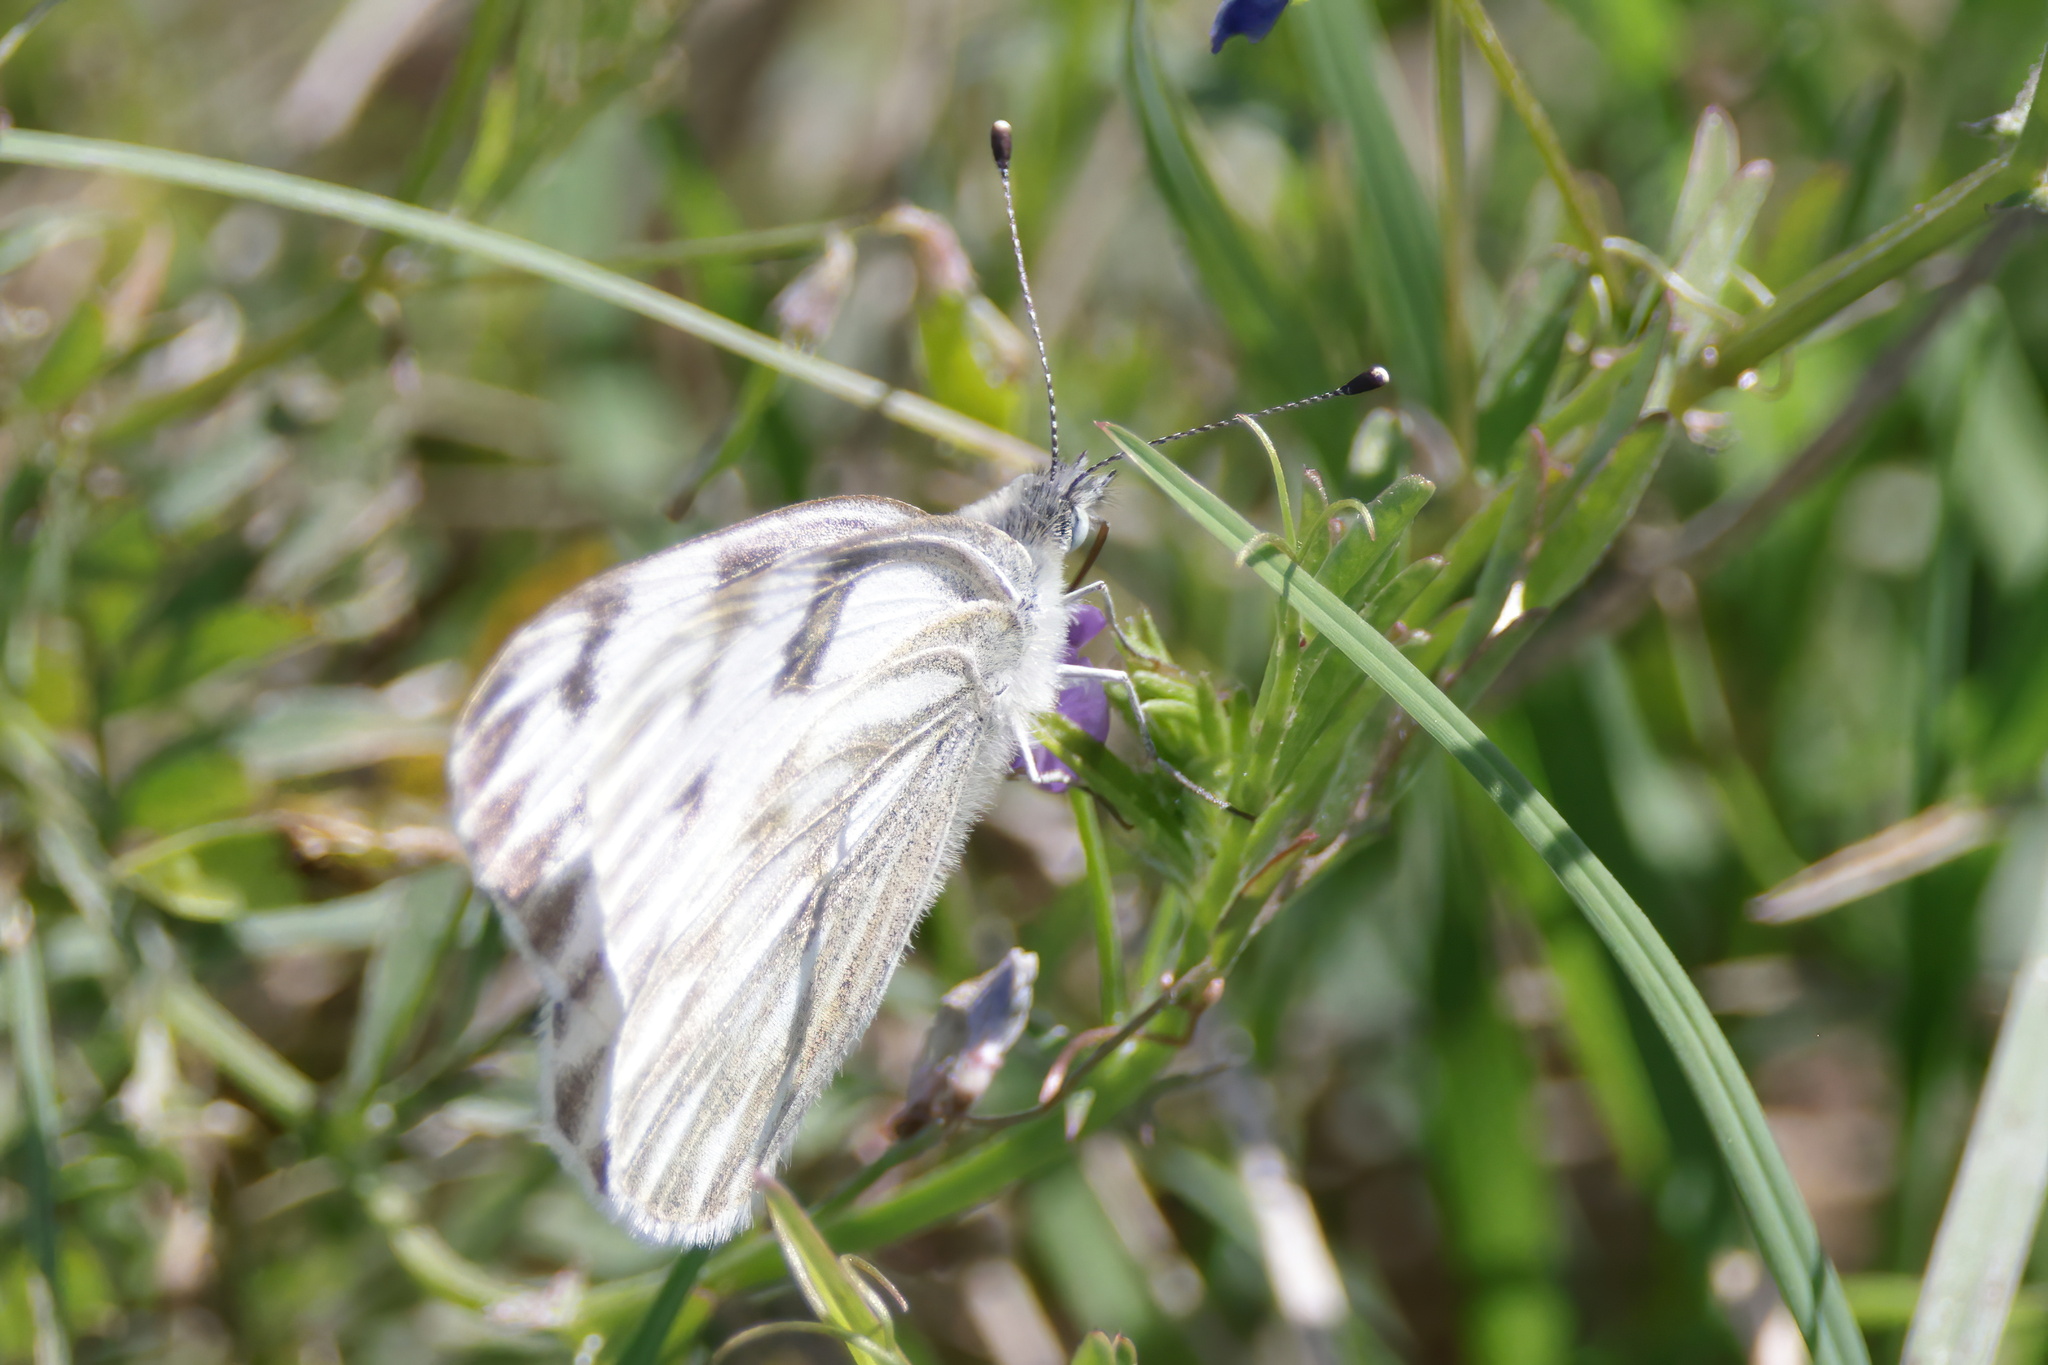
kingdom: Animalia
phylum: Arthropoda
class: Insecta
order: Lepidoptera
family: Pieridae
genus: Pontia
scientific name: Pontia protodice
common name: Checkered white
